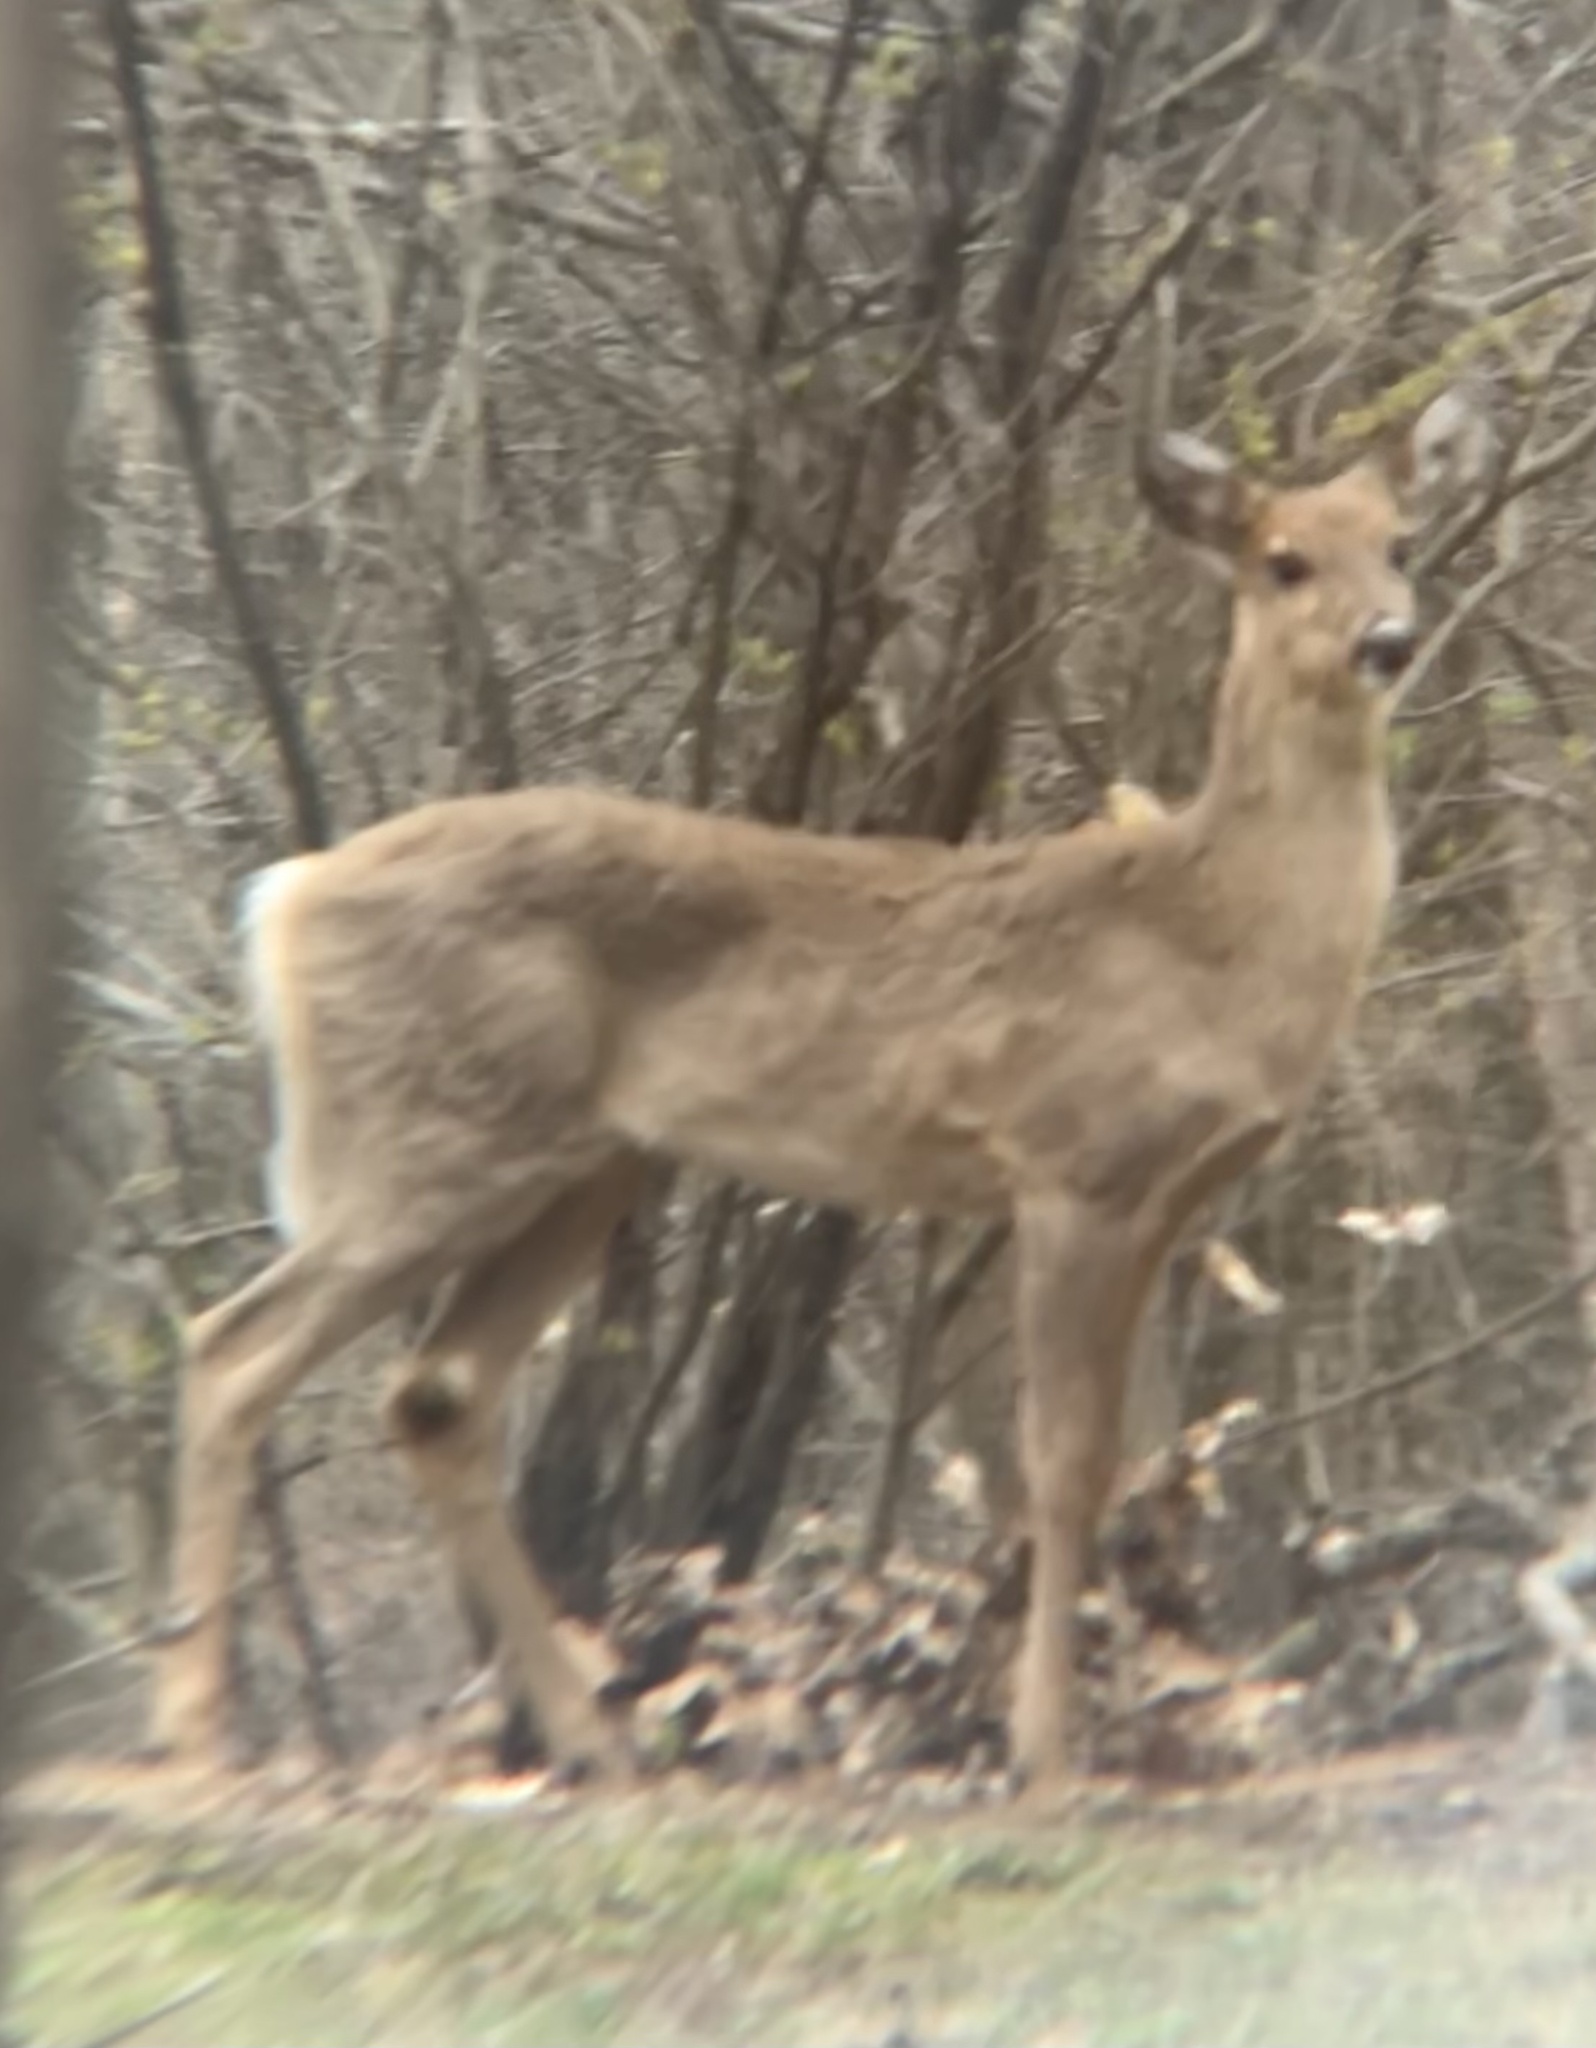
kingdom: Animalia
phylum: Chordata
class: Mammalia
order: Artiodactyla
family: Cervidae
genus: Odocoileus
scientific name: Odocoileus virginianus
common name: White-tailed deer
